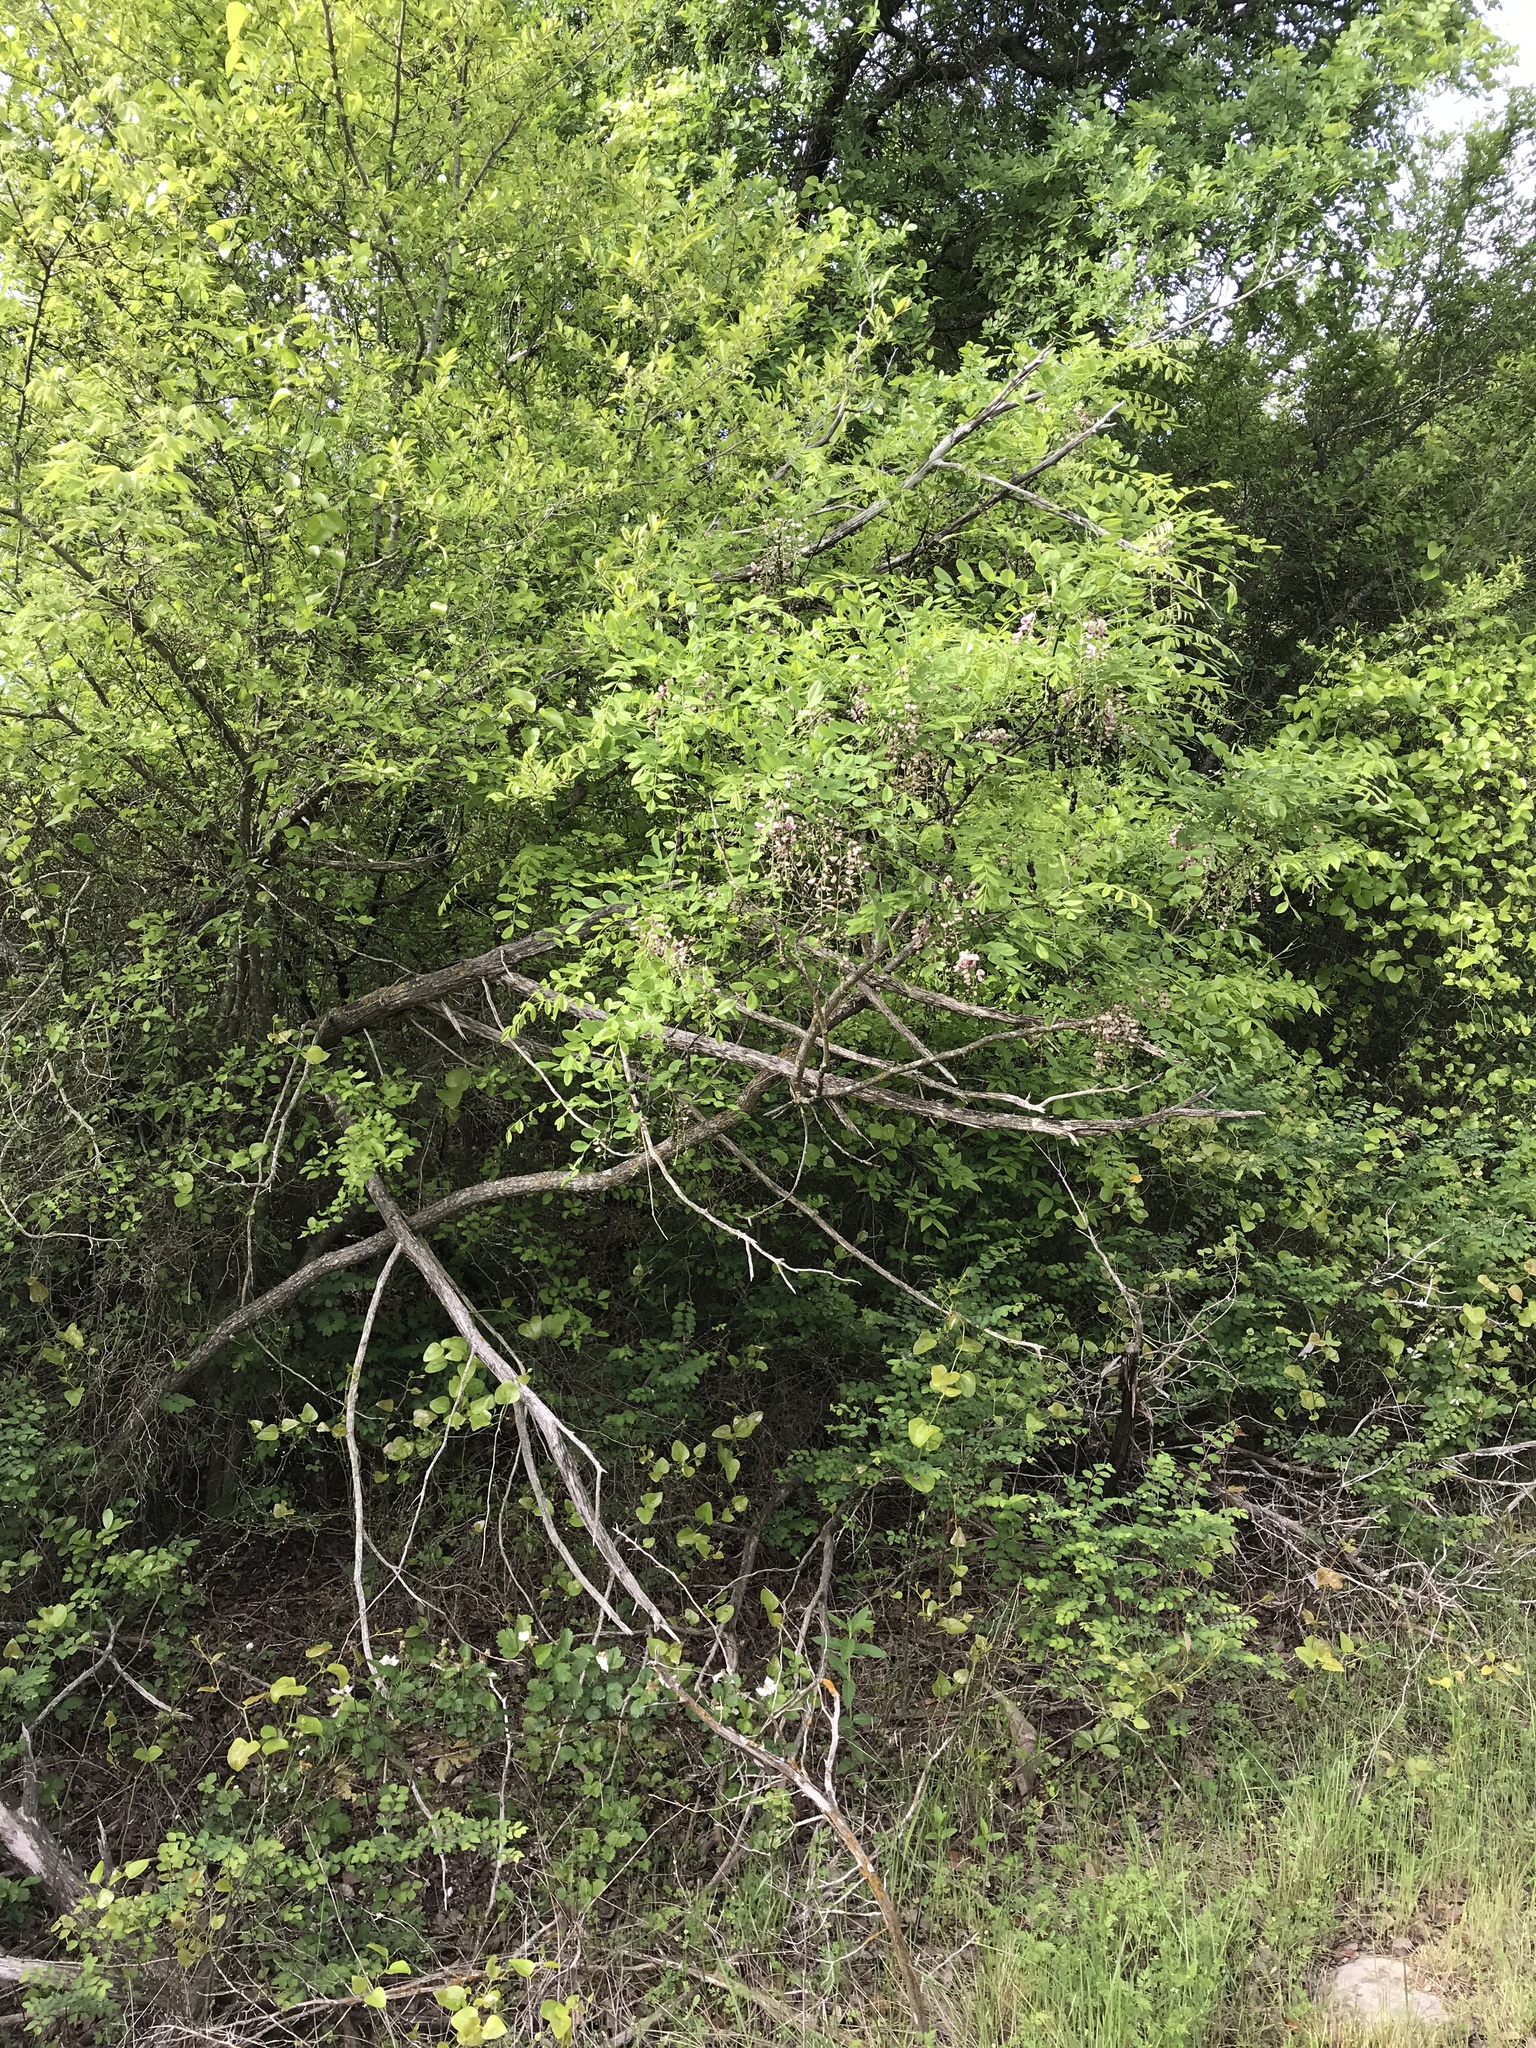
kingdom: Plantae
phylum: Tracheophyta
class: Magnoliopsida
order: Fabales
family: Fabaceae
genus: Styphnolobium
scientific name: Styphnolobium affine
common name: Texas sophora
